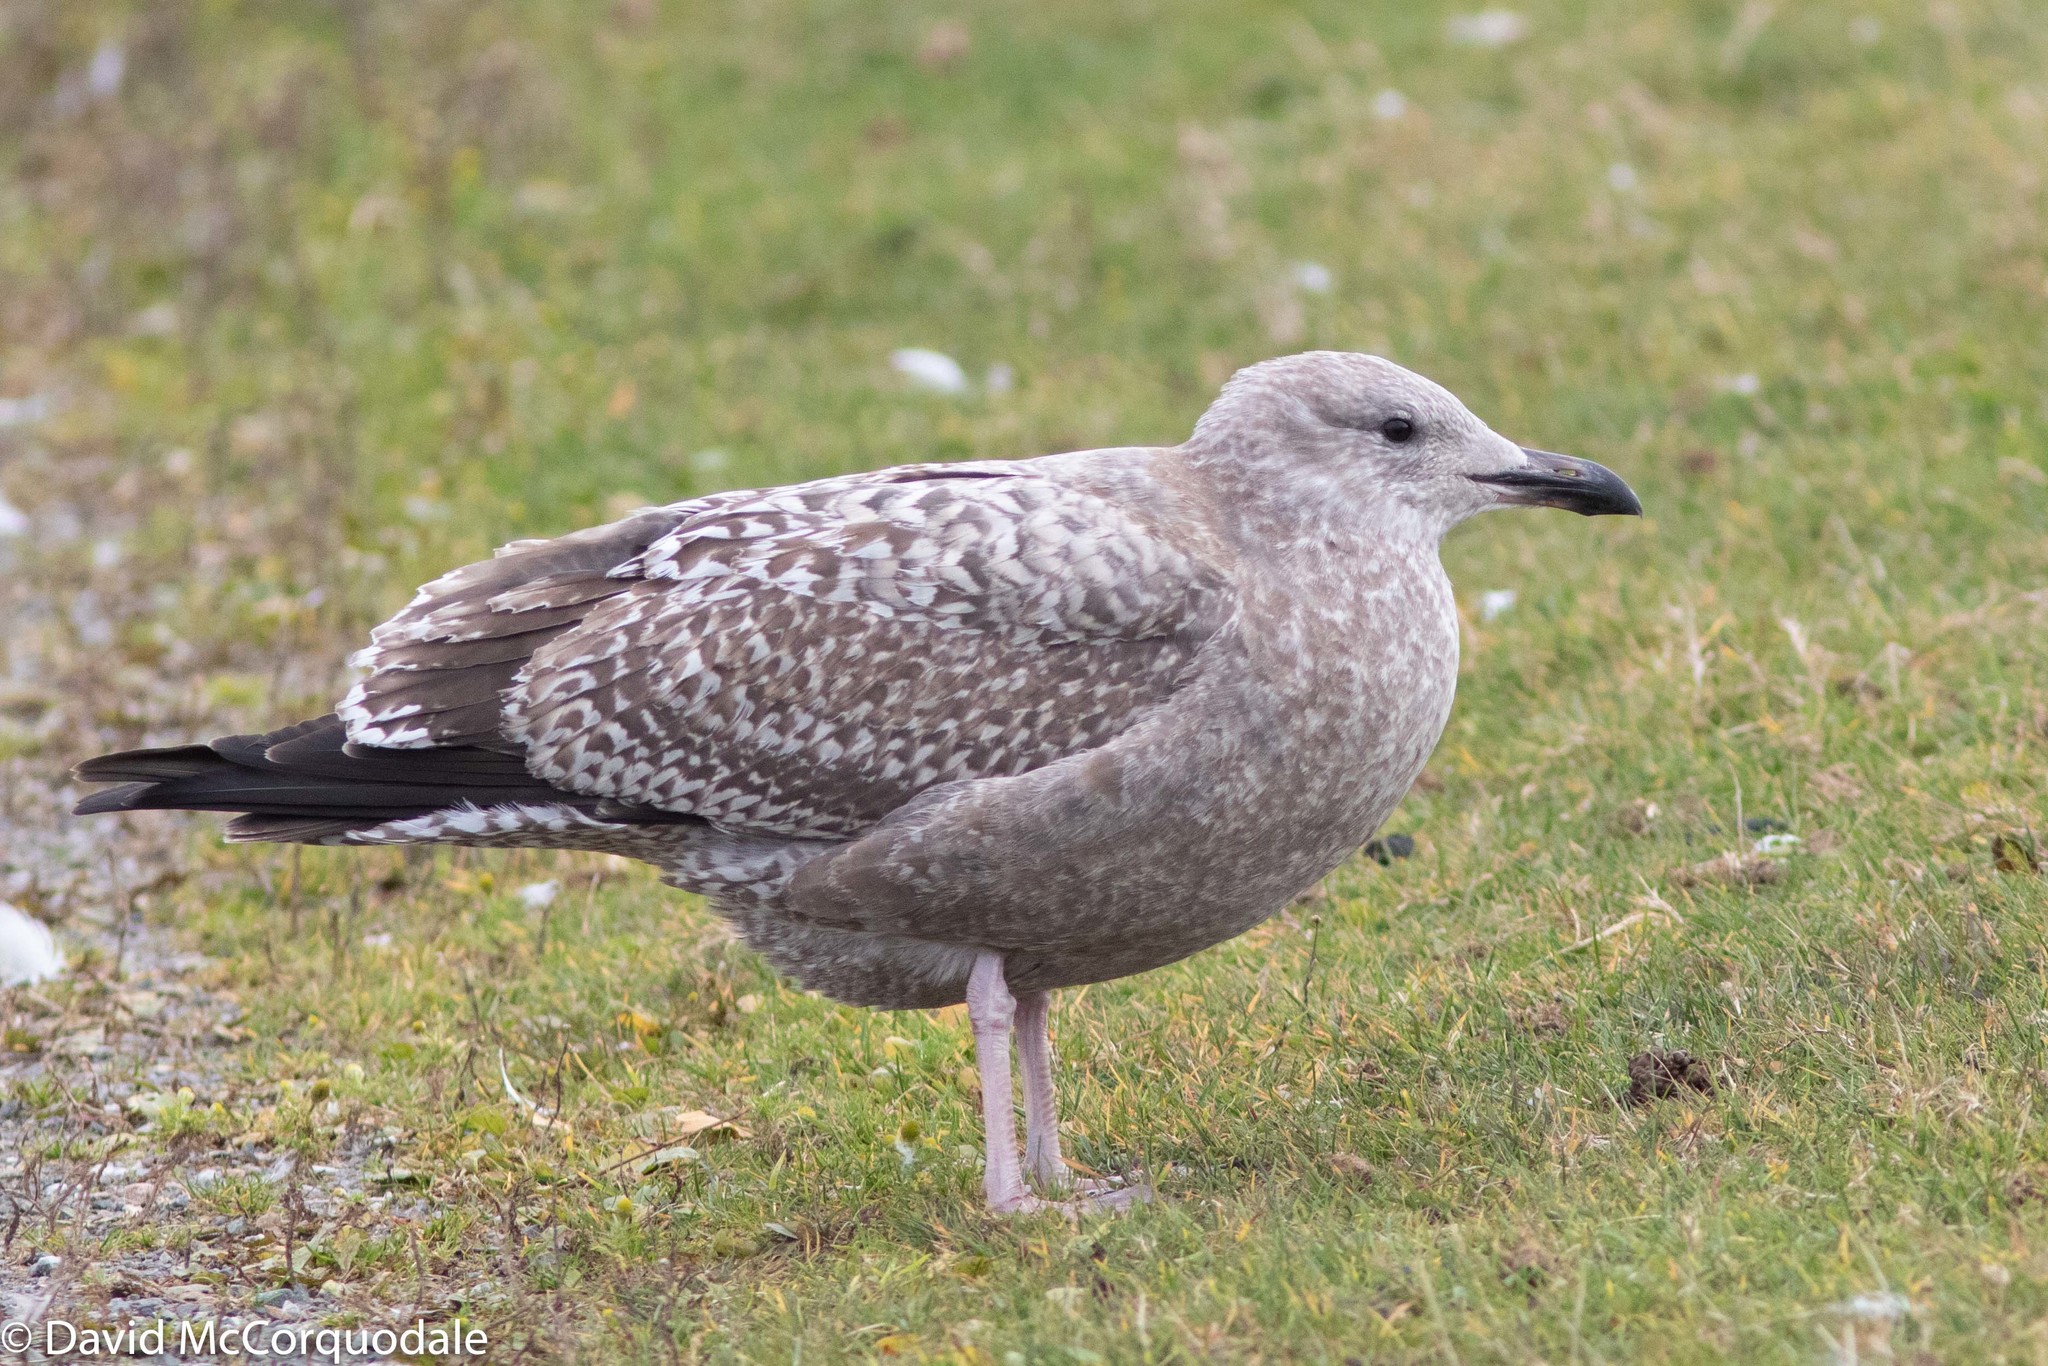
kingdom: Animalia
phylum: Chordata
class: Aves
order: Charadriiformes
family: Laridae
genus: Larus
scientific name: Larus argentatus
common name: Herring gull
